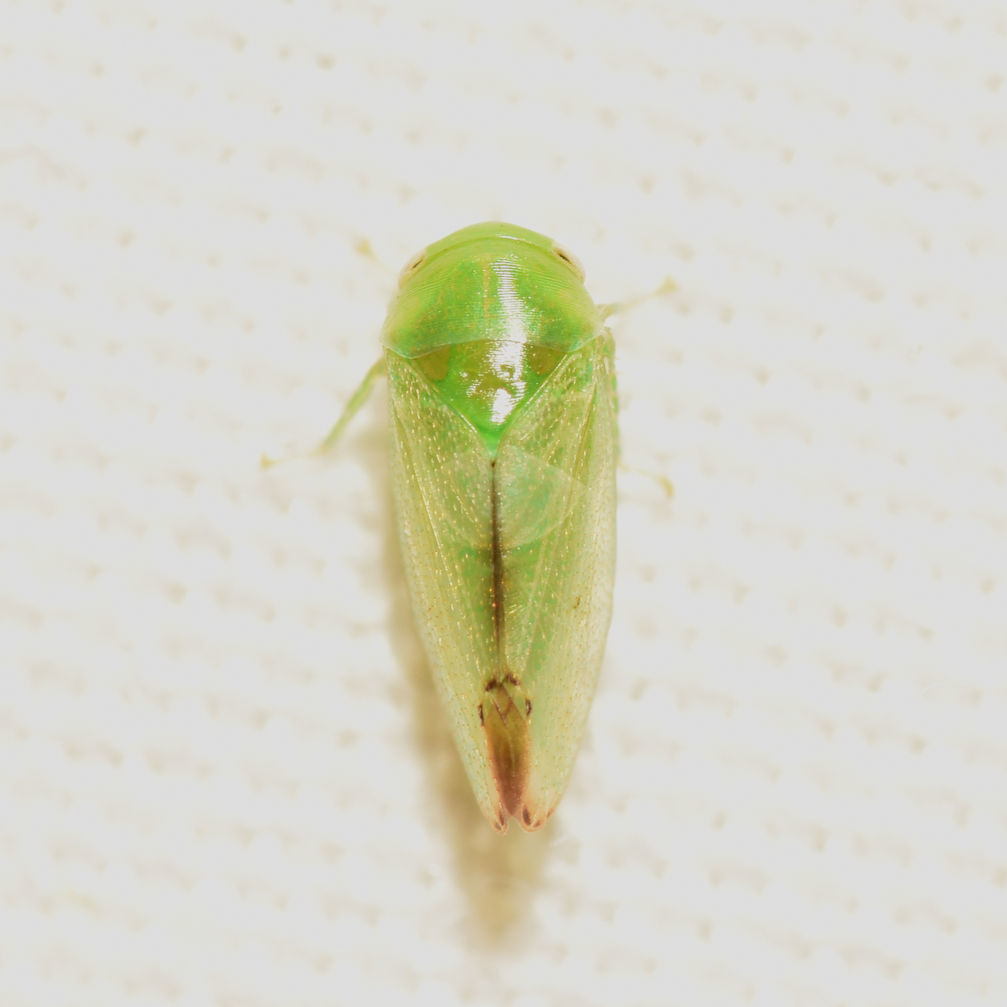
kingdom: Animalia
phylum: Arthropoda
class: Insecta
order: Hemiptera
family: Cicadellidae
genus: Stragania
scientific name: Stragania alabamensis
